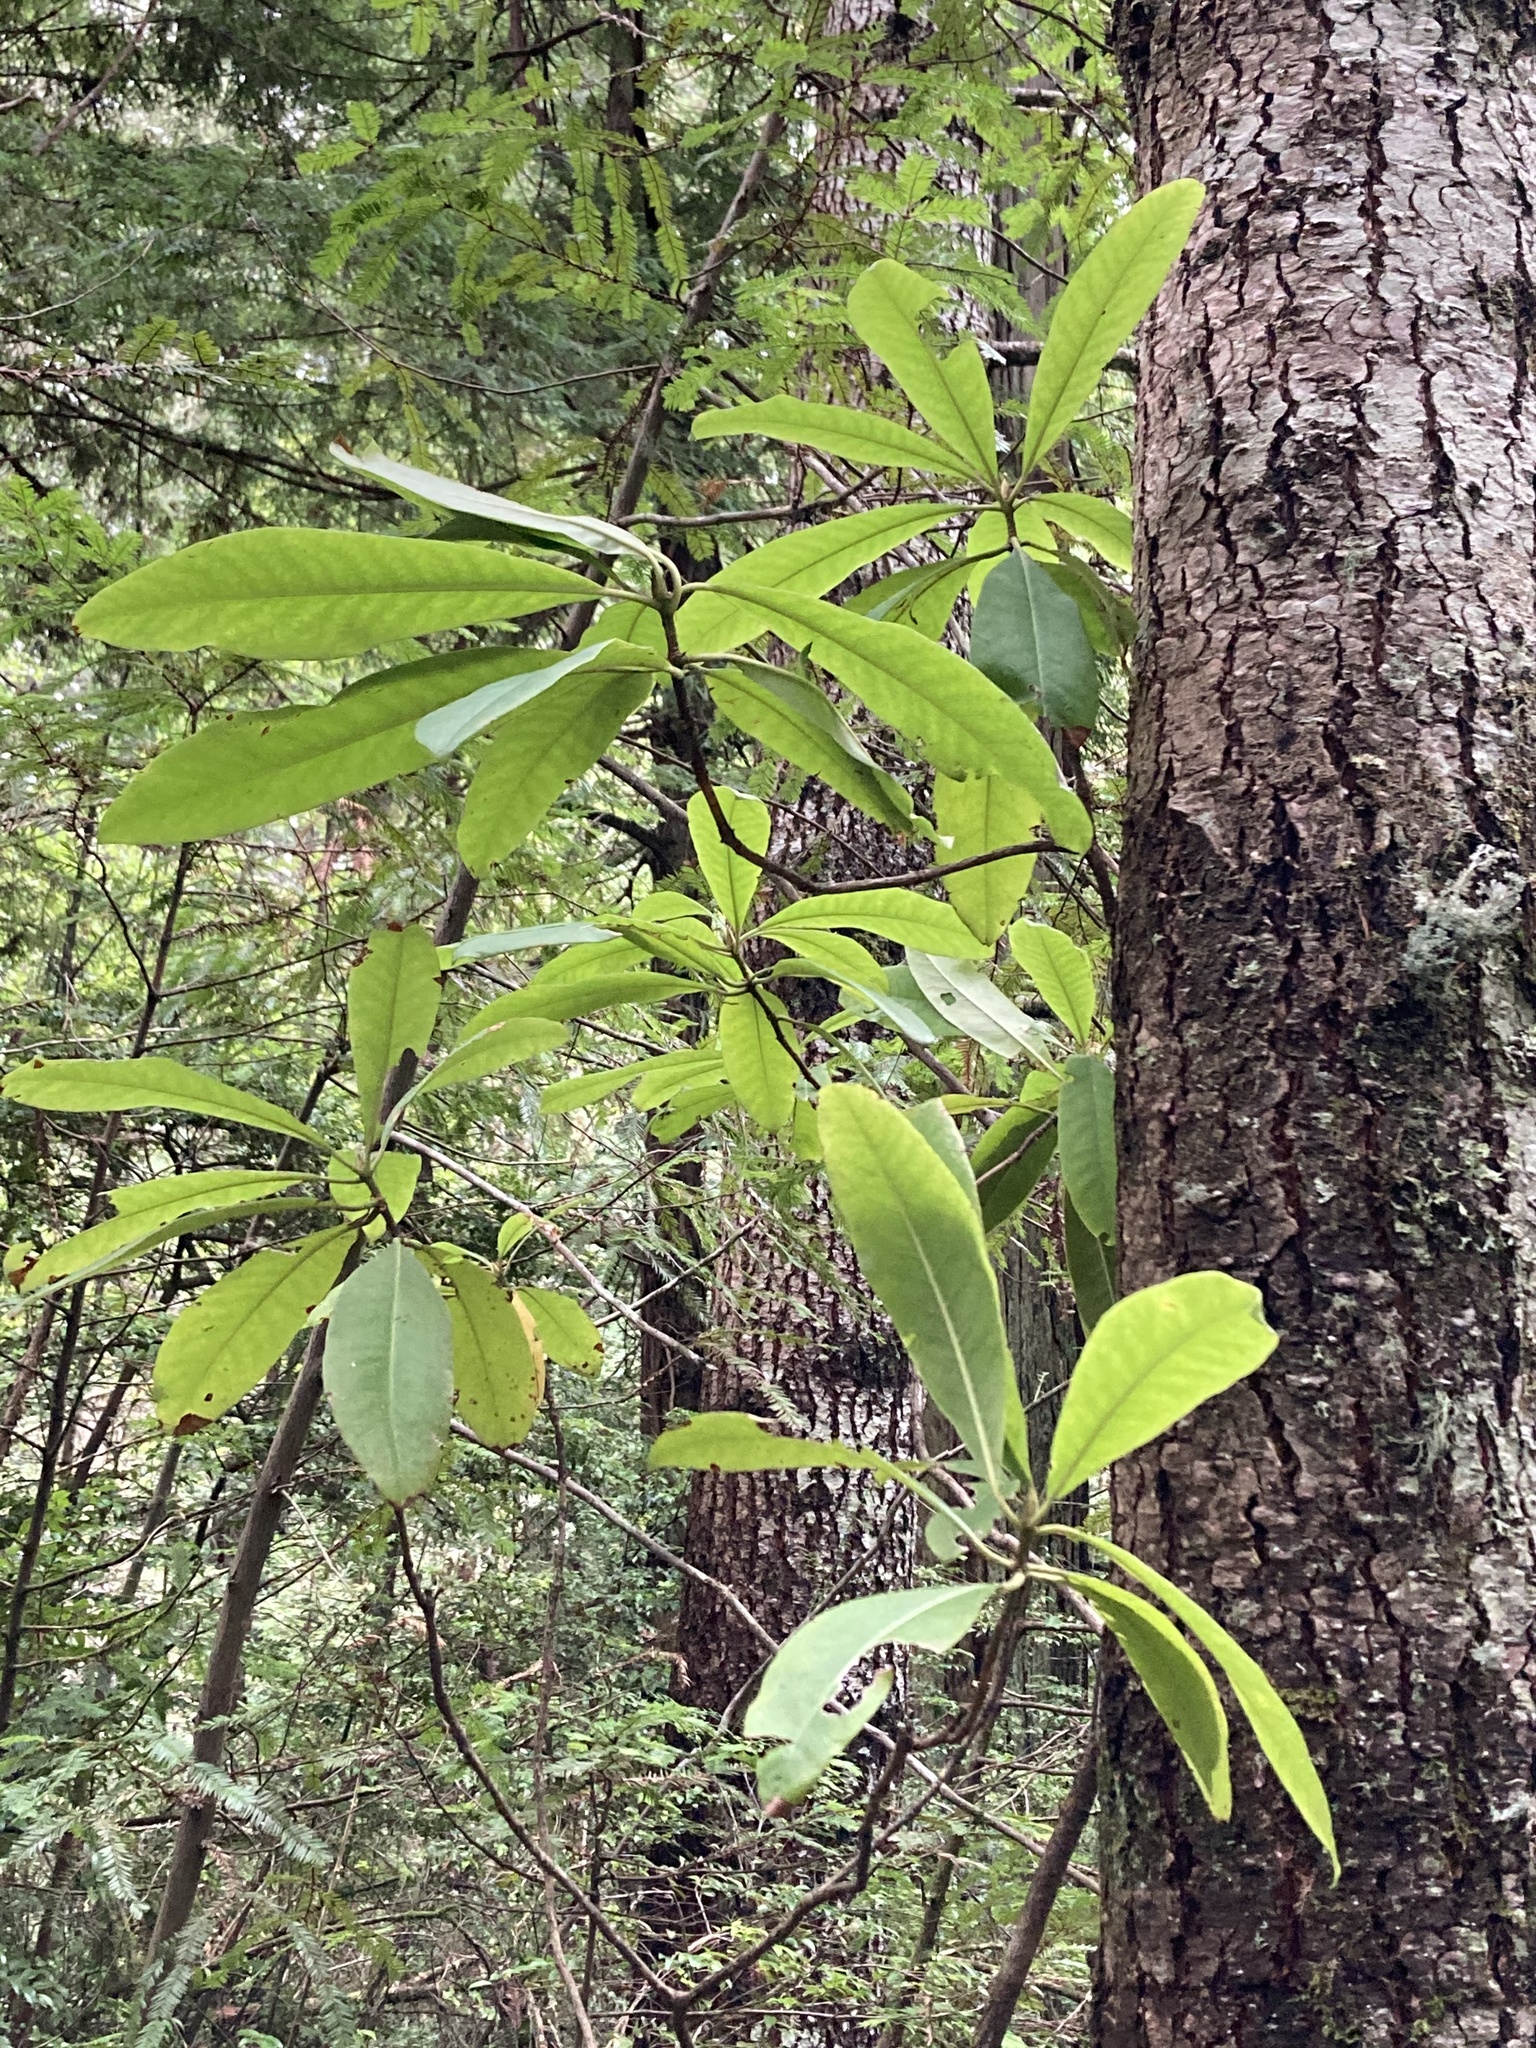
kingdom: Plantae
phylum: Tracheophyta
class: Magnoliopsida
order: Ericales
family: Ericaceae
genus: Rhododendron
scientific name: Rhododendron macrophyllum
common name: California rose bay
